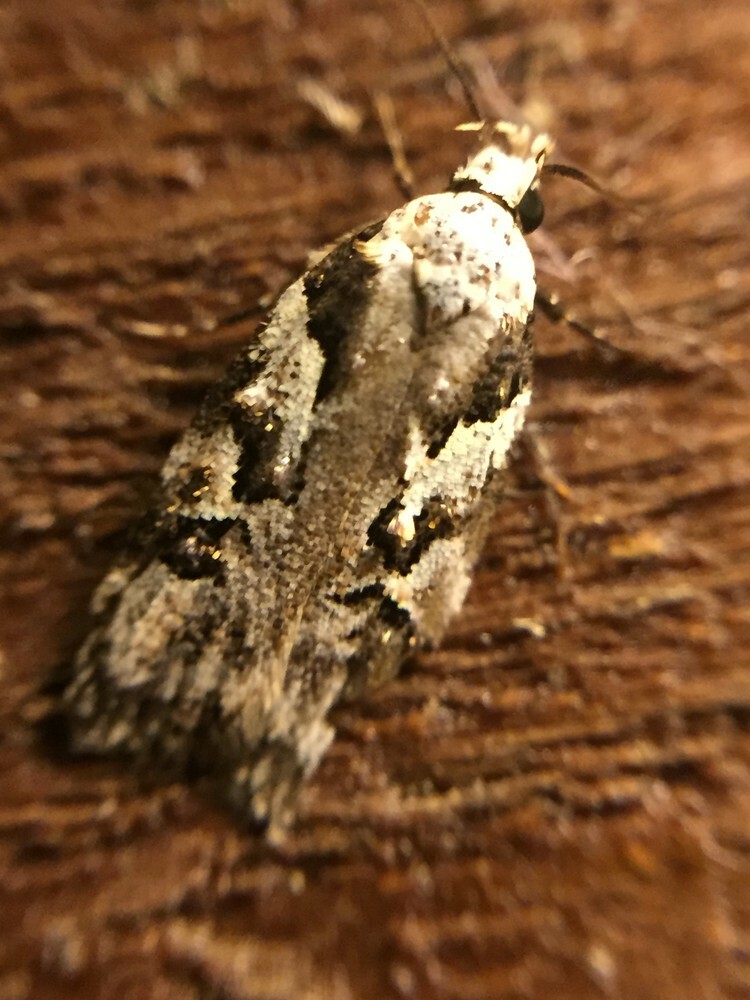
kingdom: Animalia
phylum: Arthropoda
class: Insecta
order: Lepidoptera
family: Oecophoridae
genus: Izatha
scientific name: Izatha epiphanes
